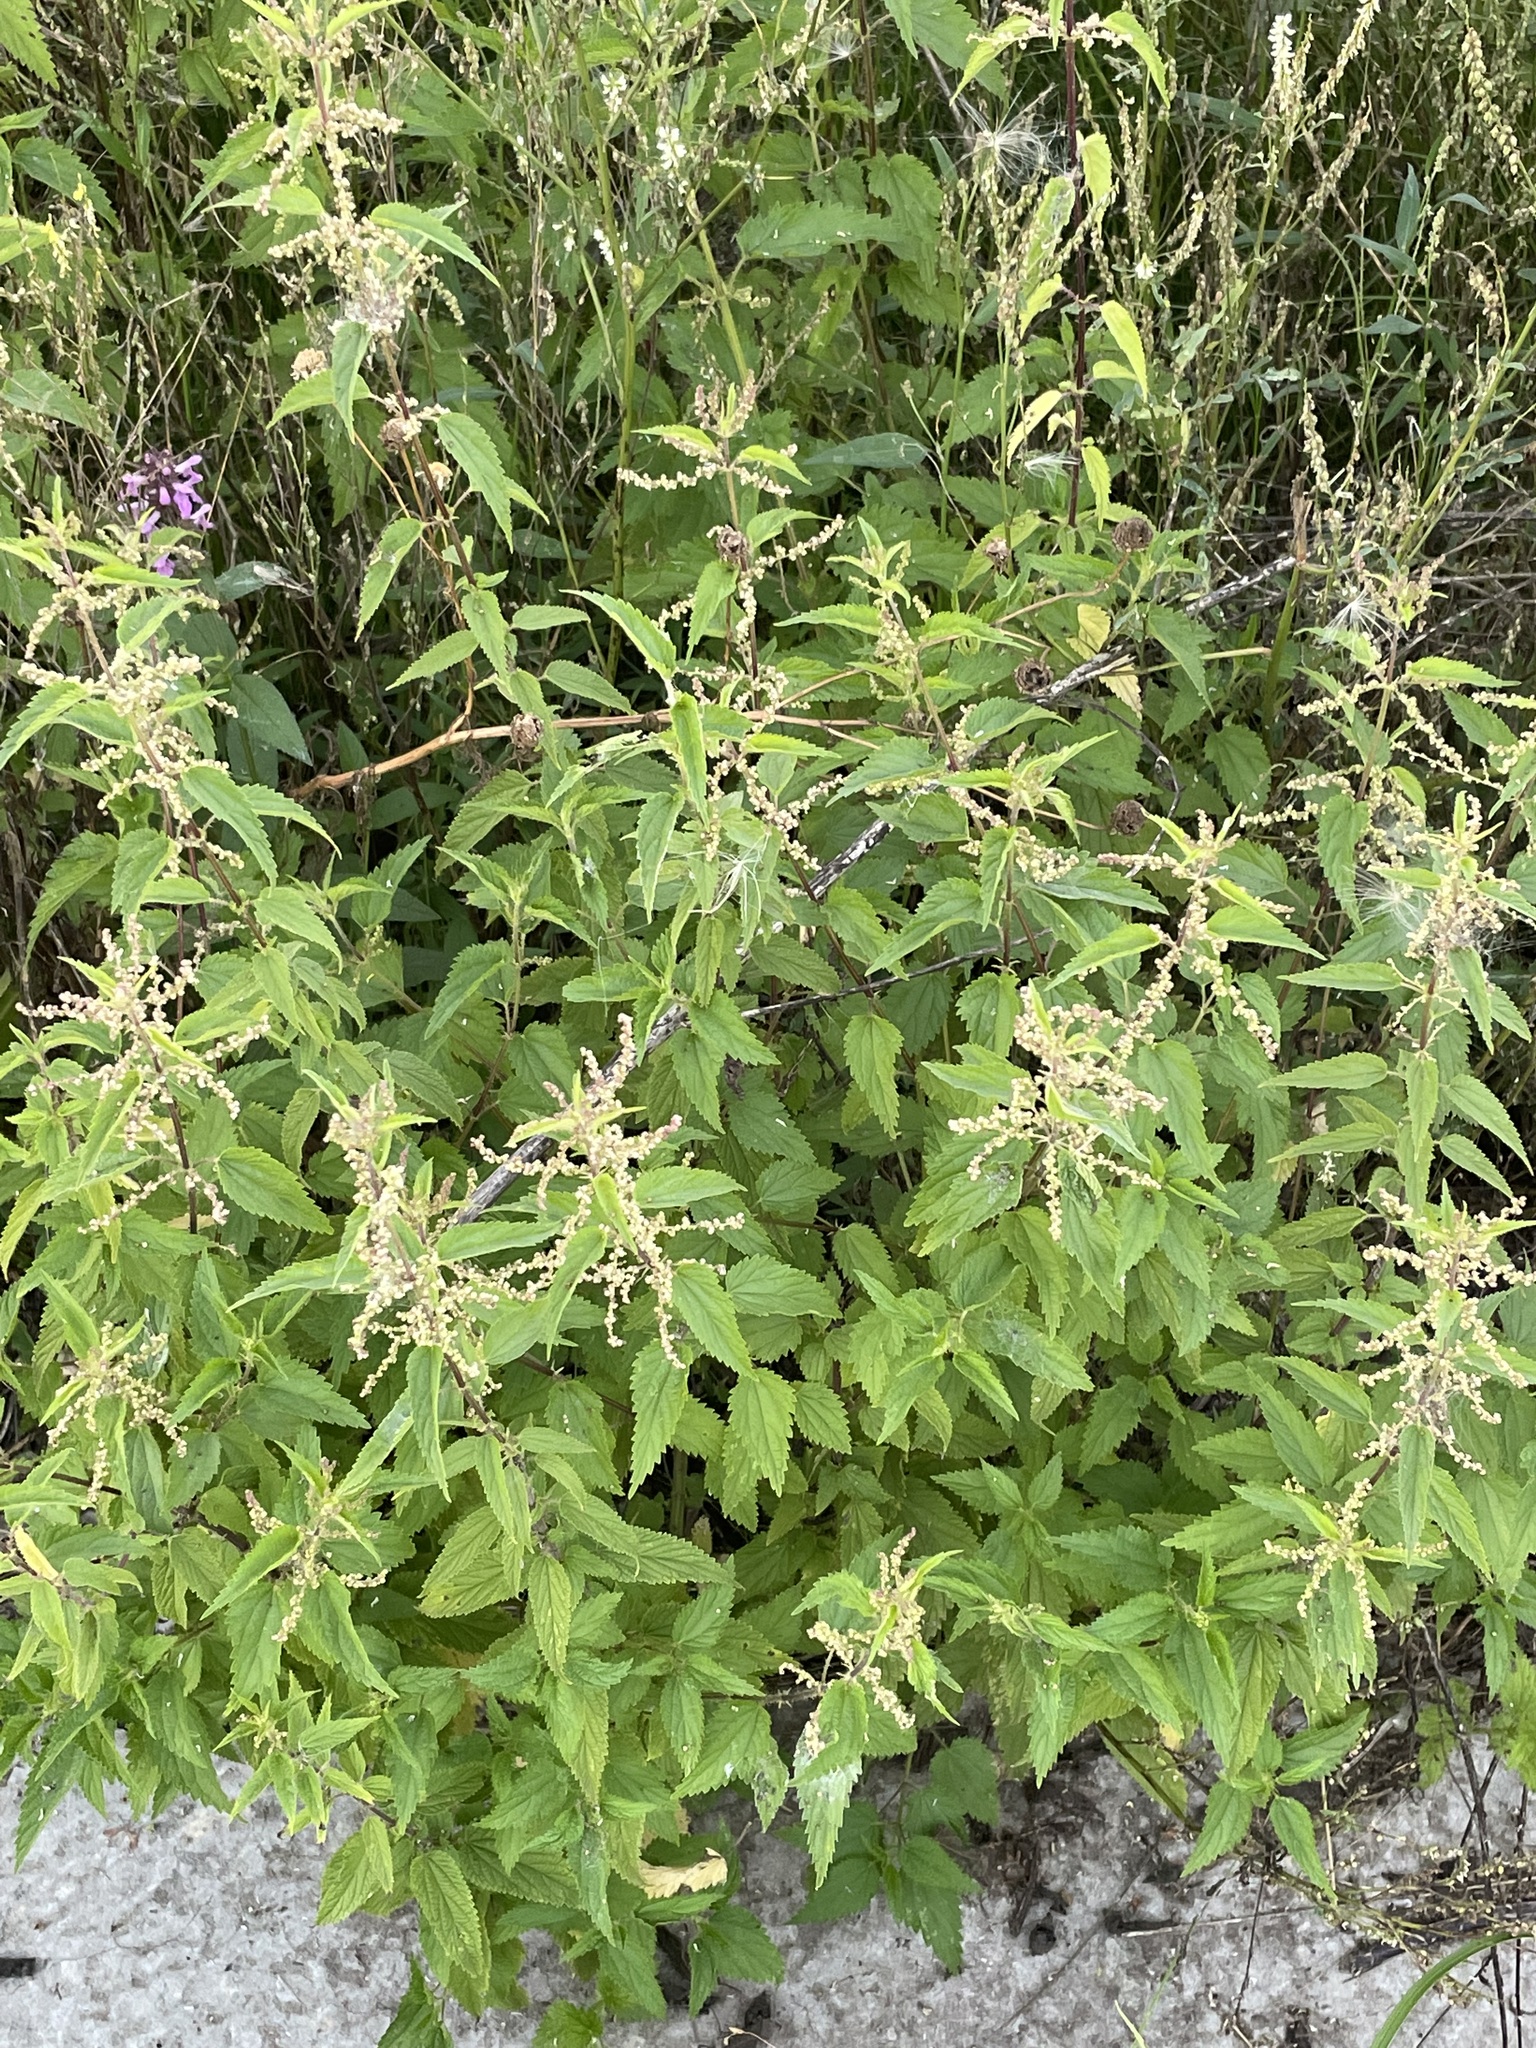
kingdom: Plantae
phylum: Tracheophyta
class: Magnoliopsida
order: Rosales
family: Urticaceae
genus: Urtica
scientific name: Urtica dioica
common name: Common nettle
